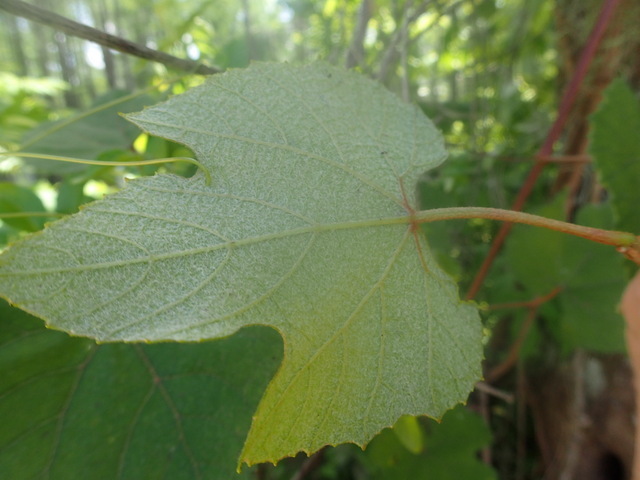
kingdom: Plantae
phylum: Tracheophyta
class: Magnoliopsida
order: Vitales
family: Vitaceae
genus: Vitis
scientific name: Vitis cinerea
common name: Ashy grape
